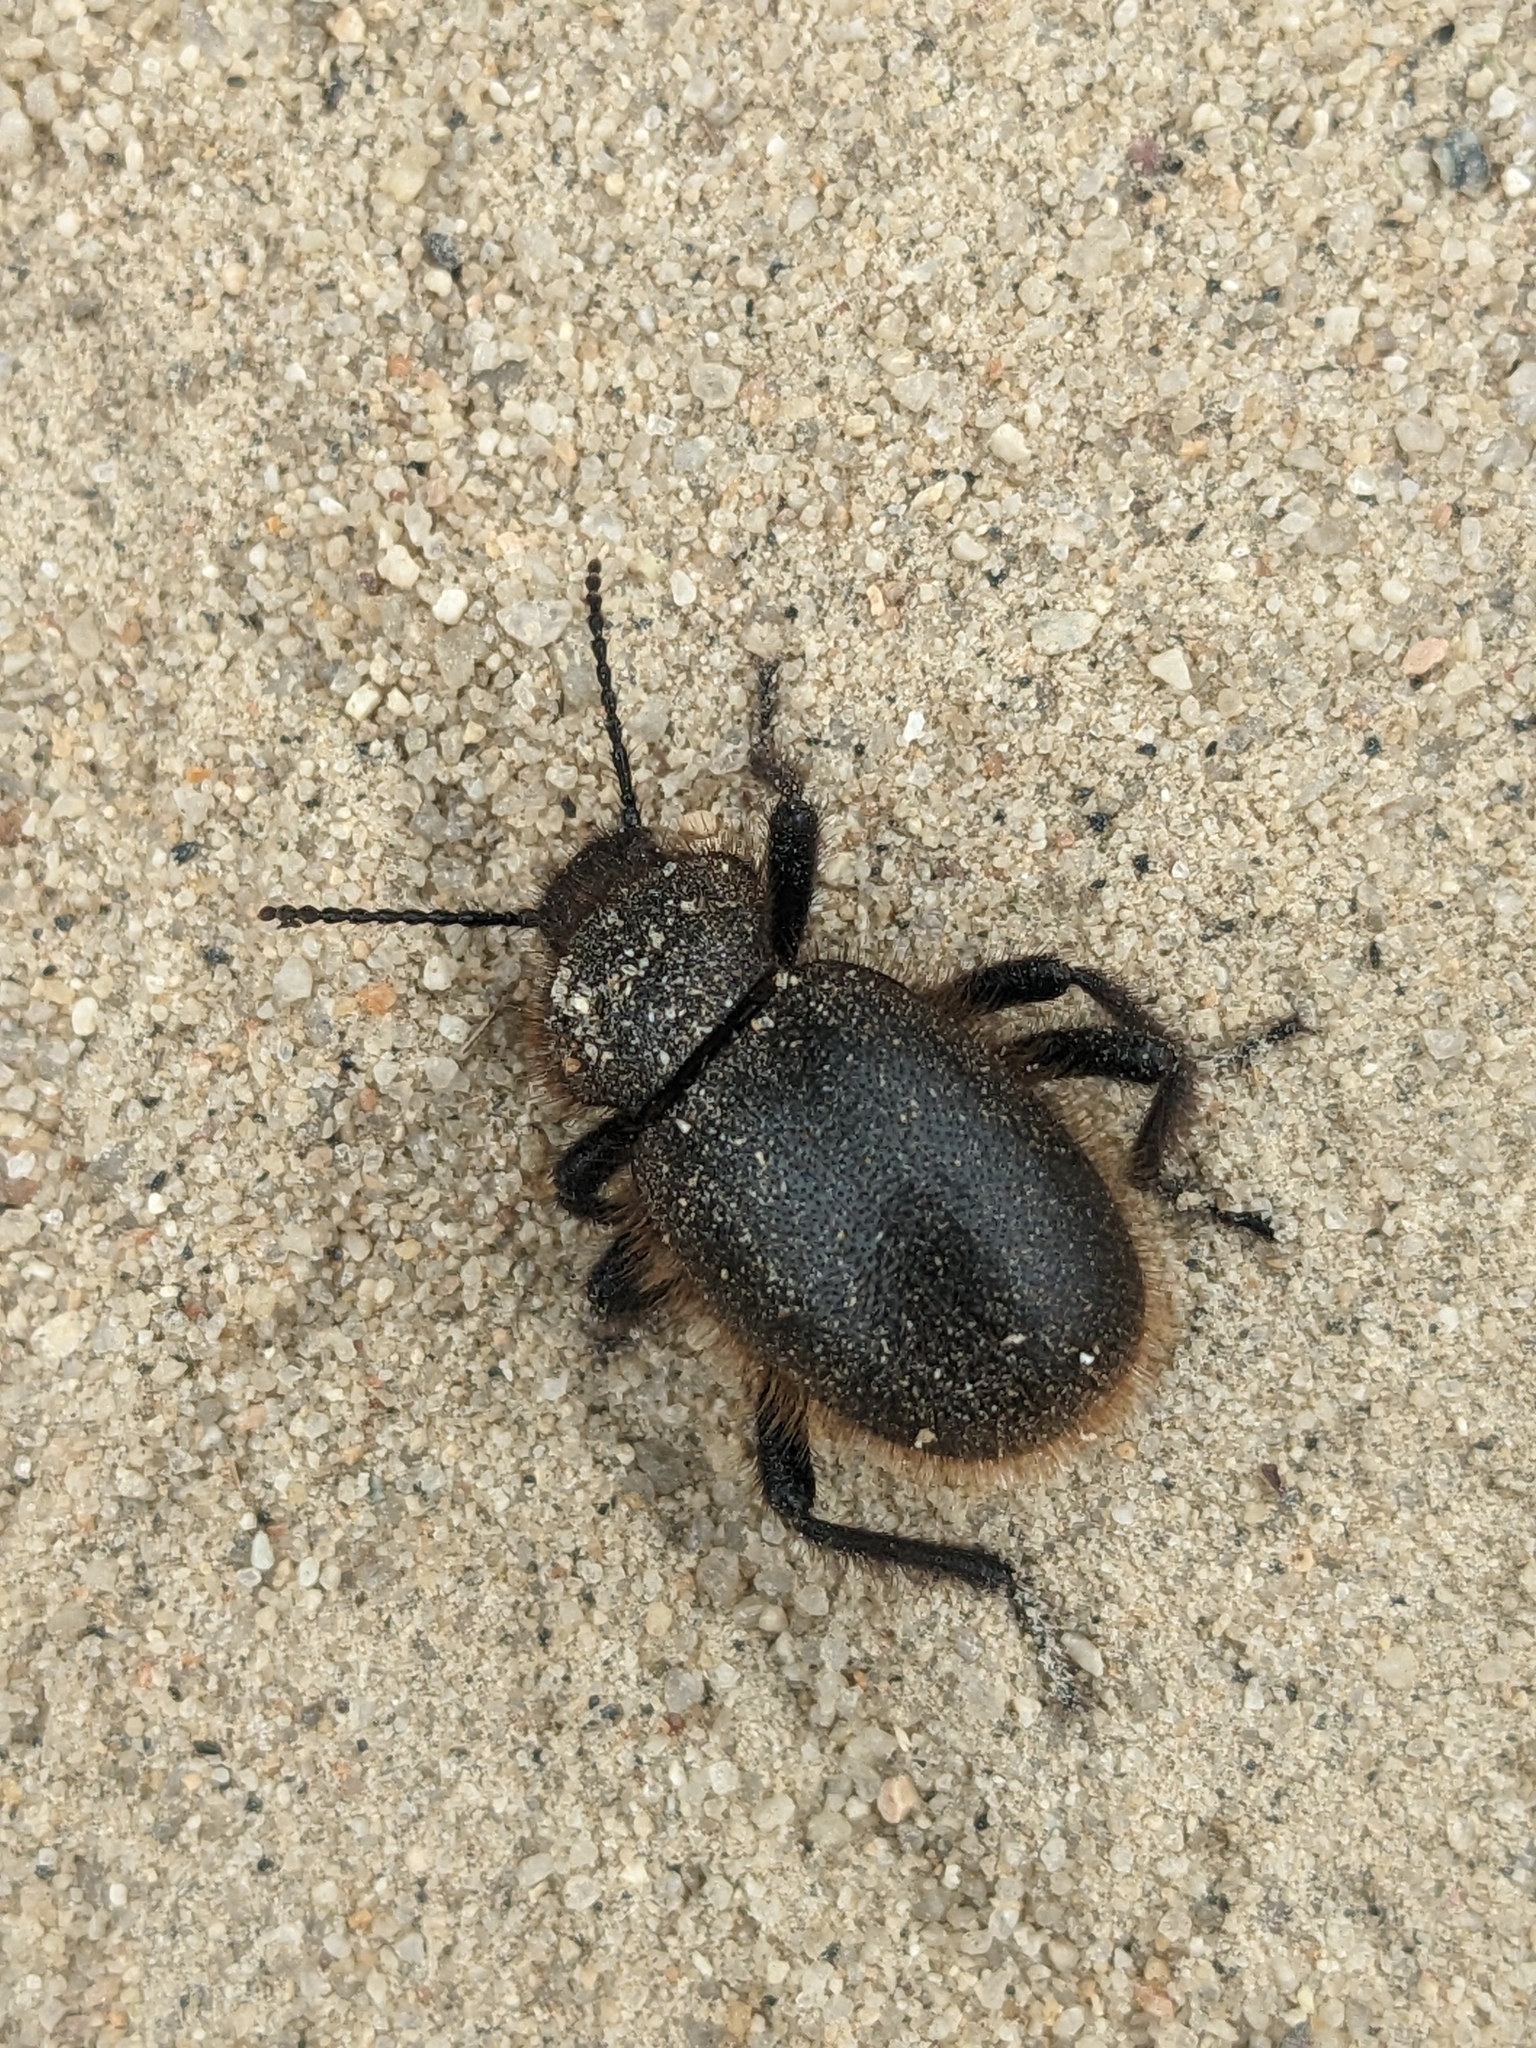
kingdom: Animalia
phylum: Arthropoda
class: Insecta
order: Coleoptera
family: Tenebrionidae
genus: Eleodes
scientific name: Eleodes osculans
